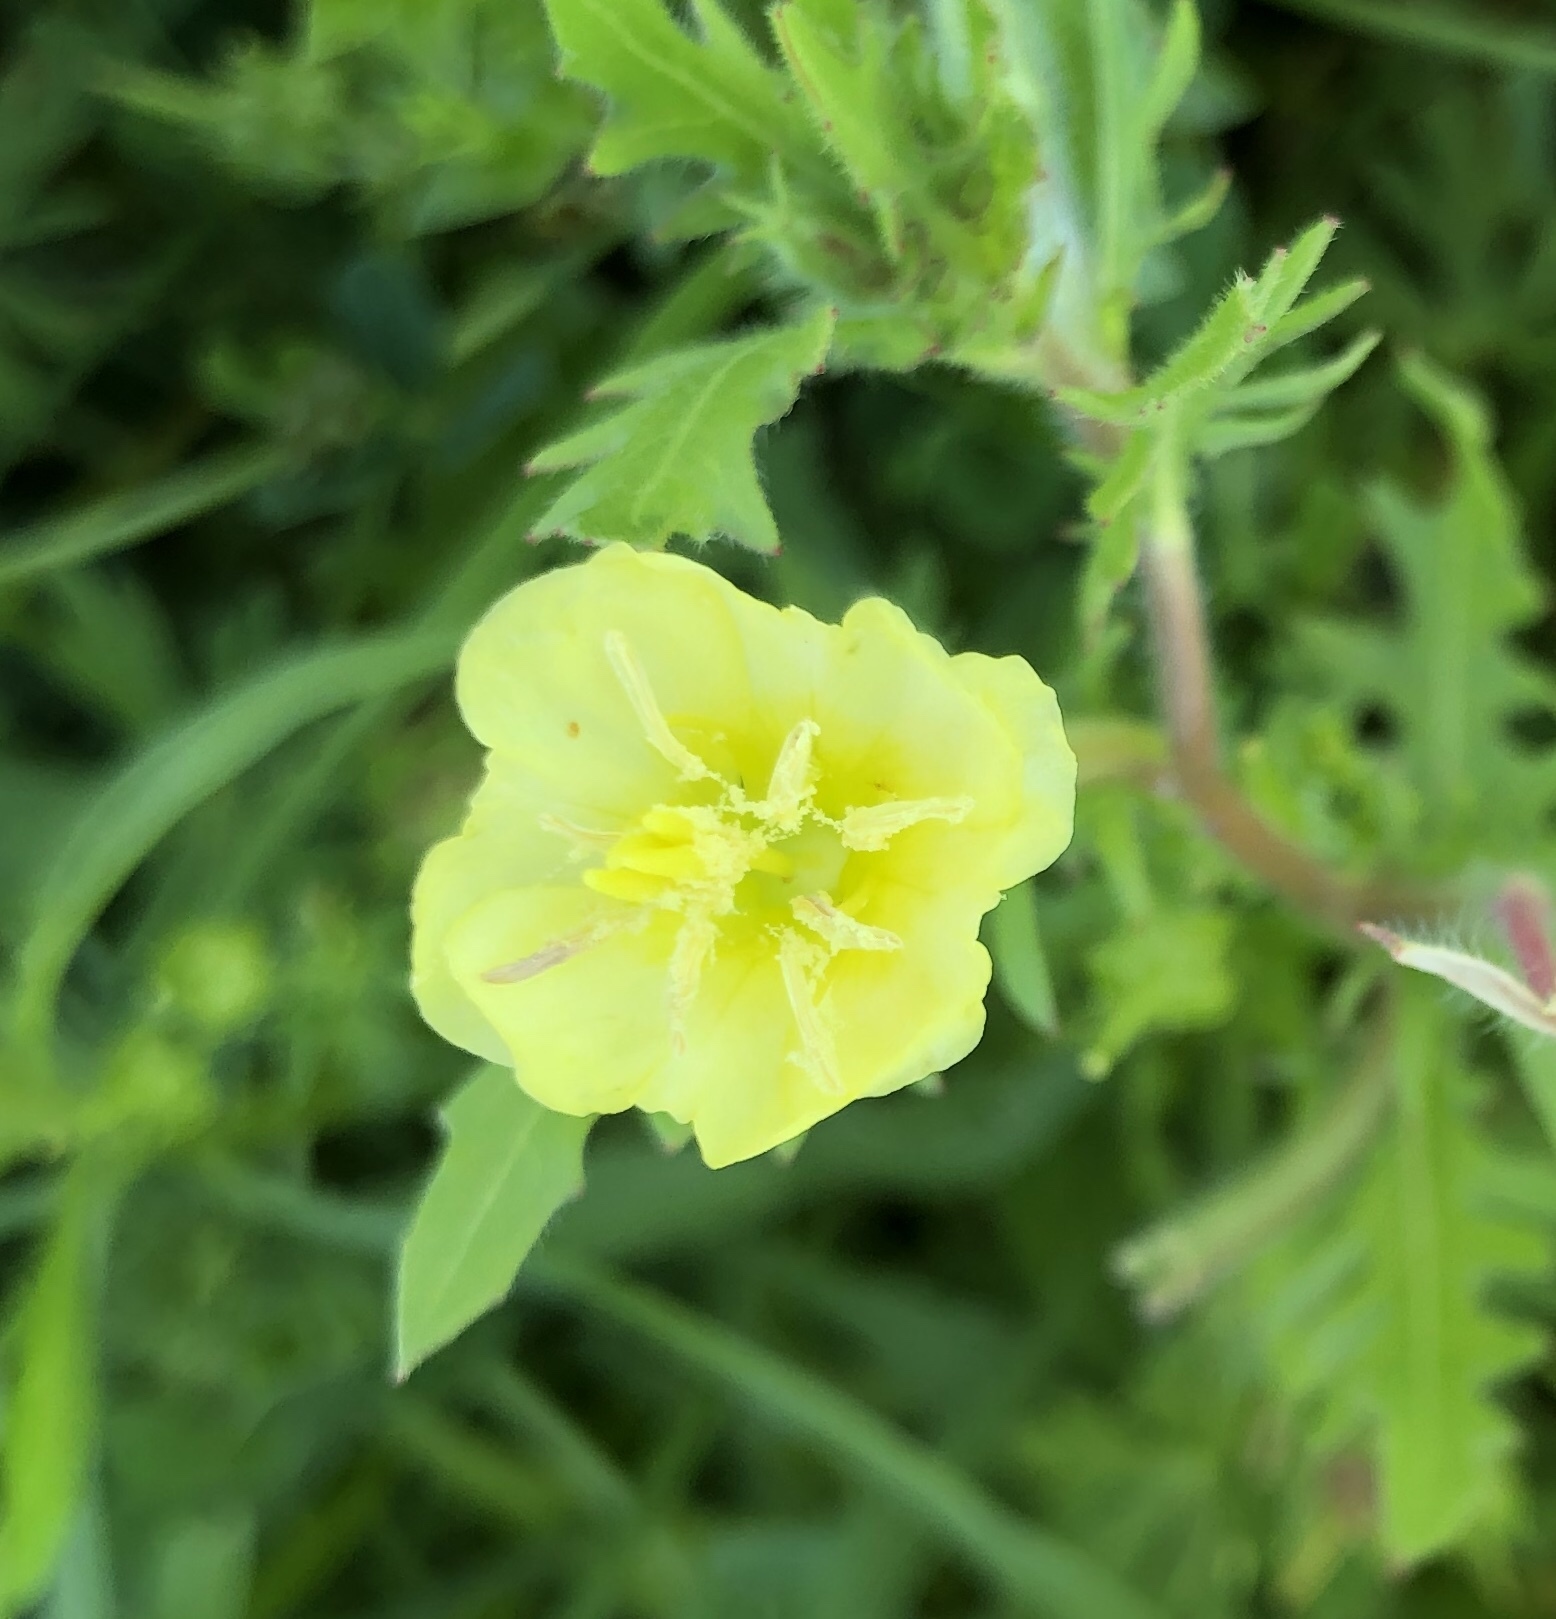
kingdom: Plantae
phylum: Tracheophyta
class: Magnoliopsida
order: Myrtales
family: Onagraceae
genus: Oenothera
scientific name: Oenothera laciniata
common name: Cut-leaved evening-primrose
